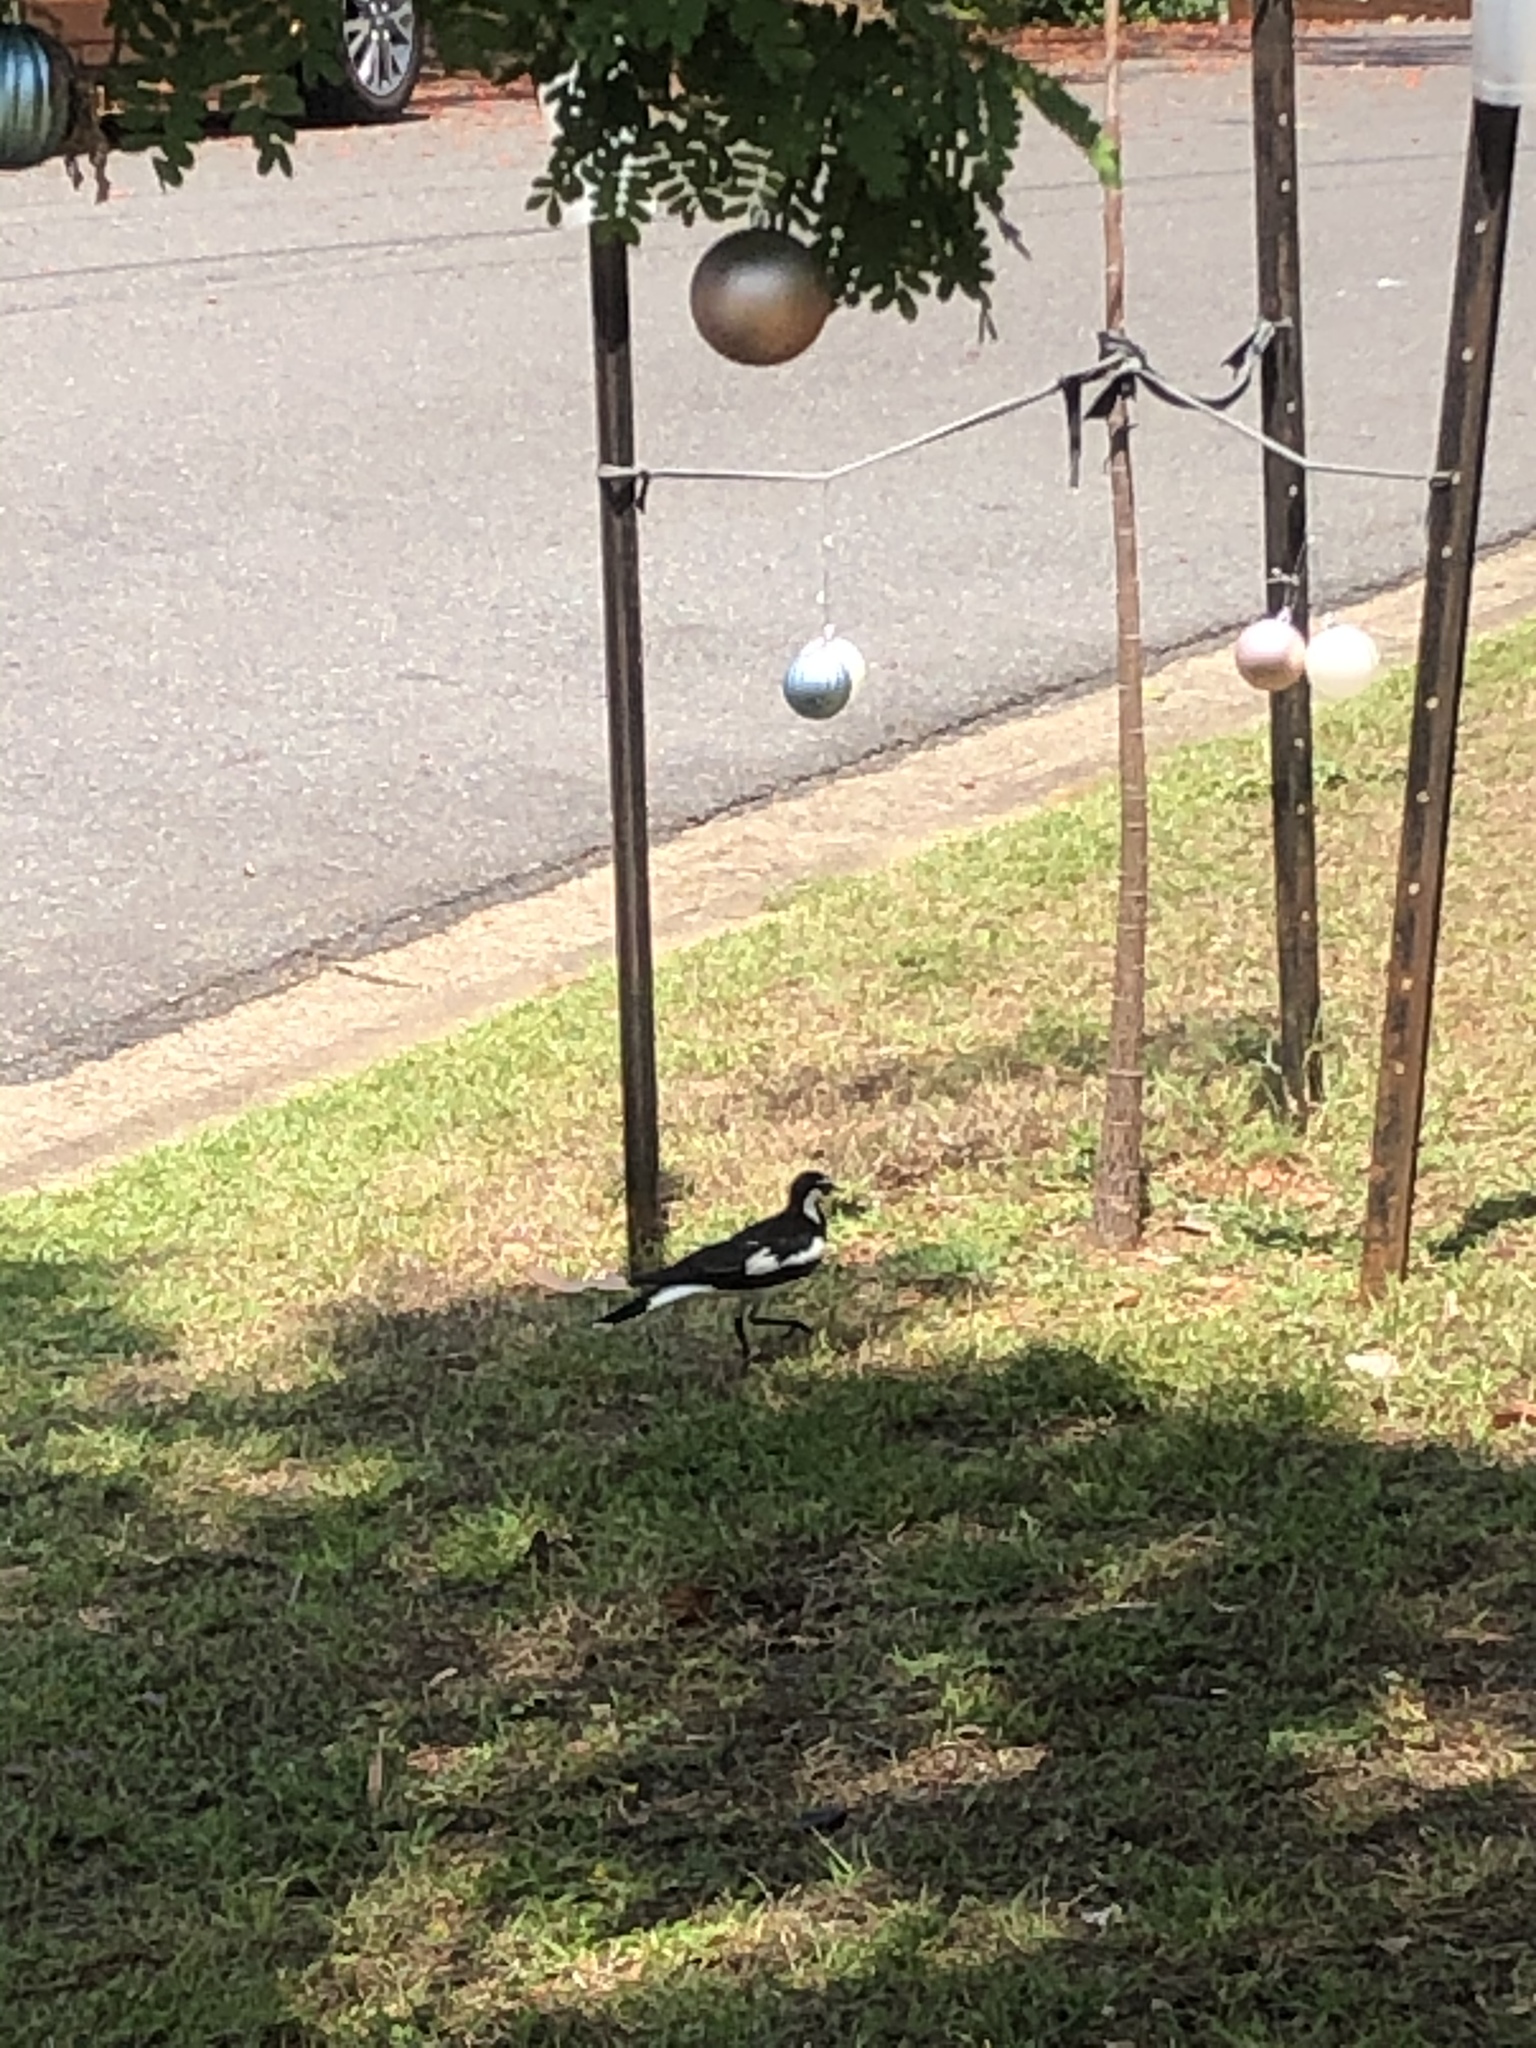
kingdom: Animalia
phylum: Chordata
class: Aves
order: Passeriformes
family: Monarchidae
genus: Grallina
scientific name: Grallina cyanoleuca
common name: Magpie-lark
